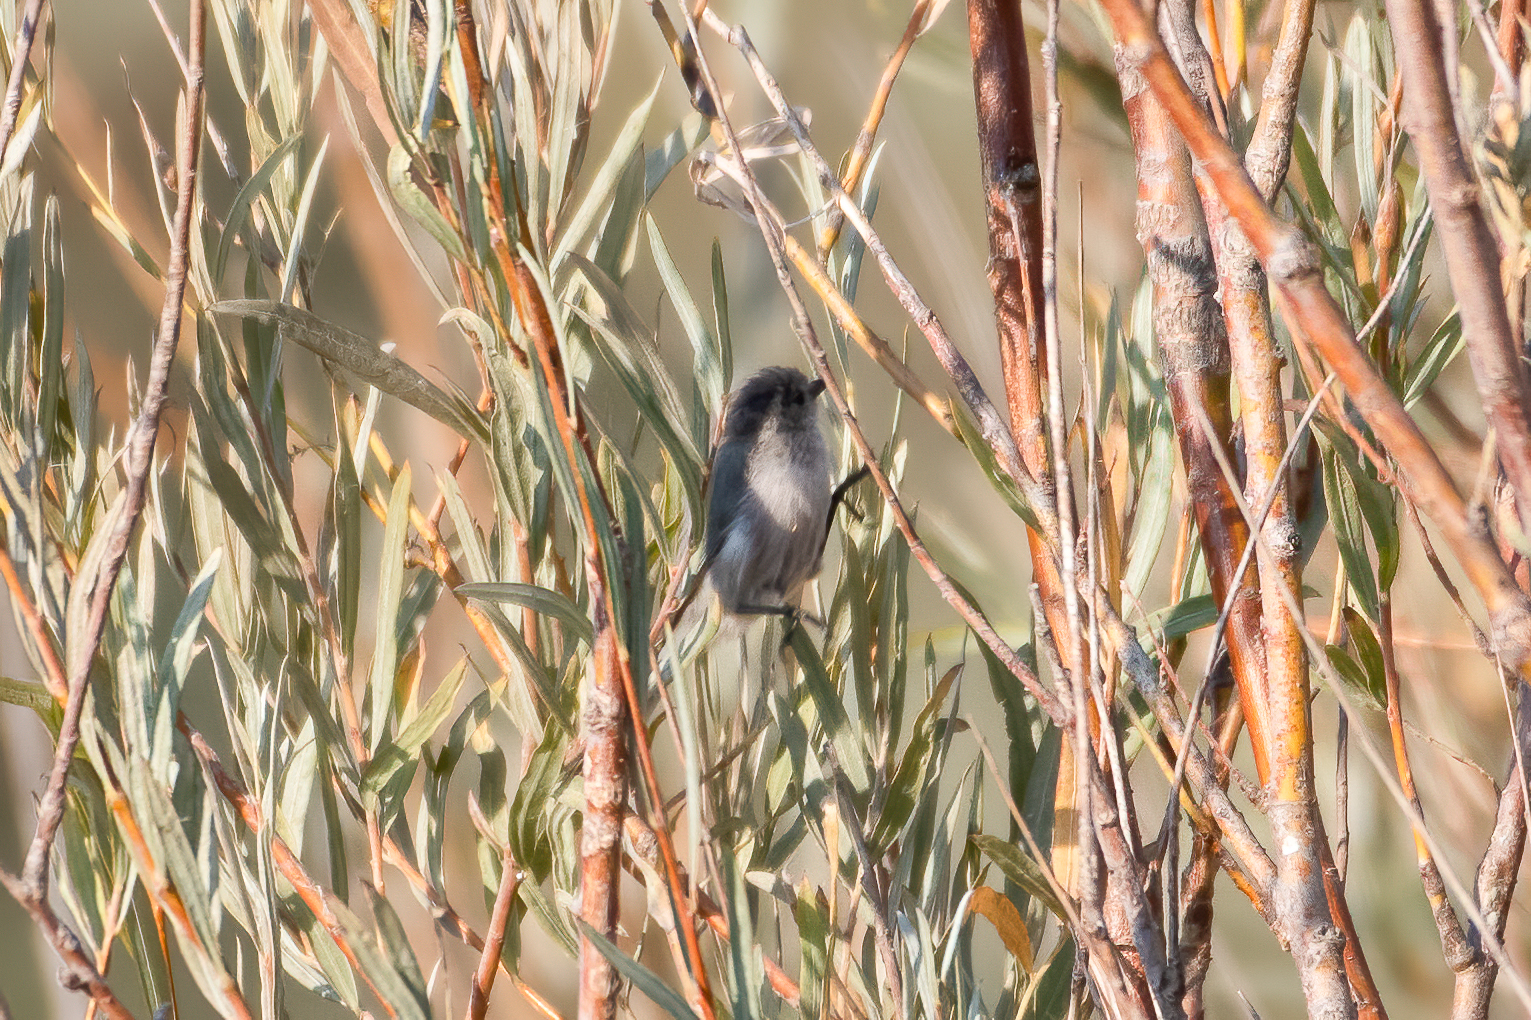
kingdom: Animalia
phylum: Chordata
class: Aves
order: Passeriformes
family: Aegithalidae
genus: Psaltriparus
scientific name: Psaltriparus minimus
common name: American bushtit
